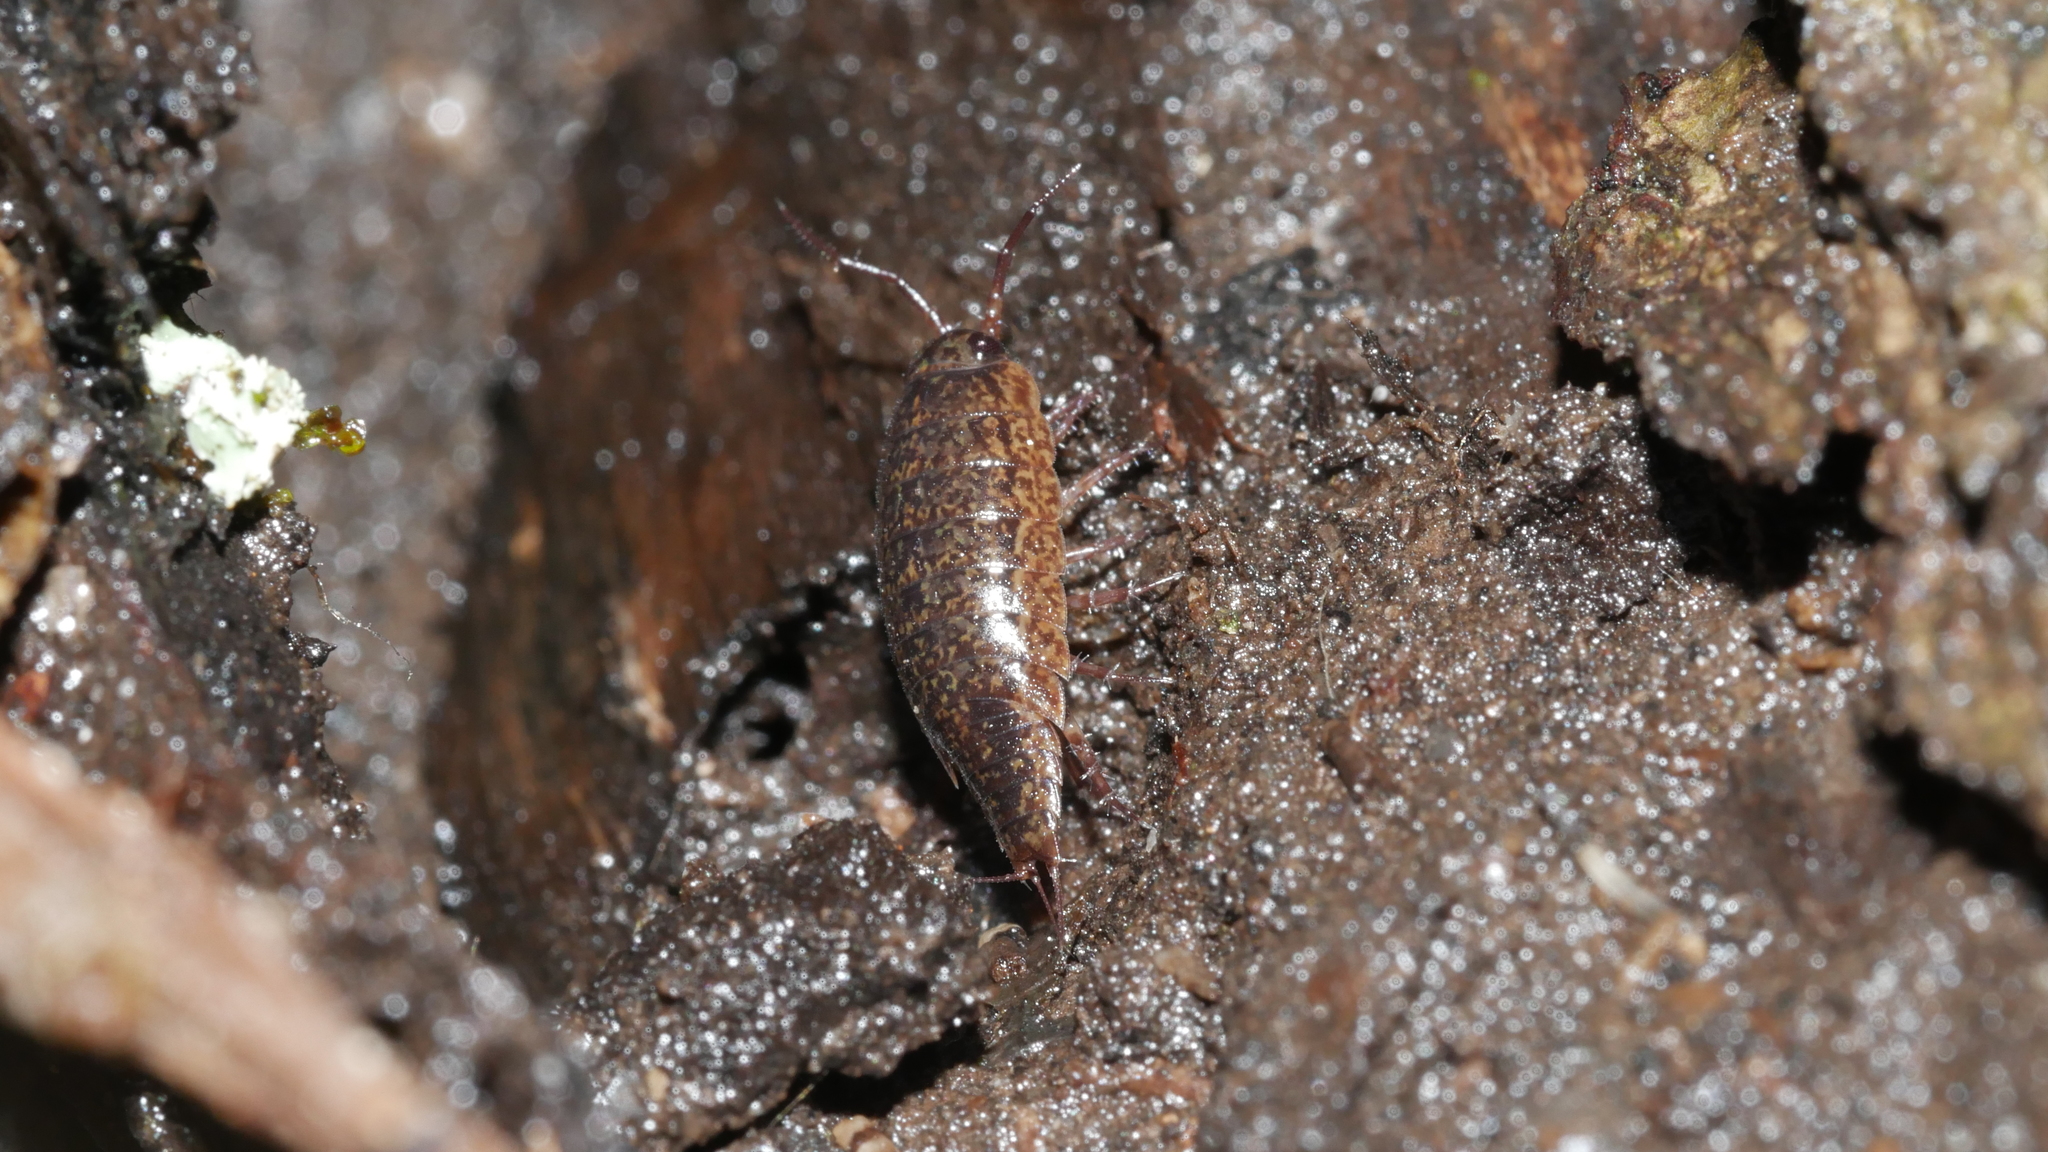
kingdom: Animalia
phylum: Arthropoda
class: Malacostraca
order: Isopoda
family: Ligiidae
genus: Ligidium
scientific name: Ligidium elrodii
